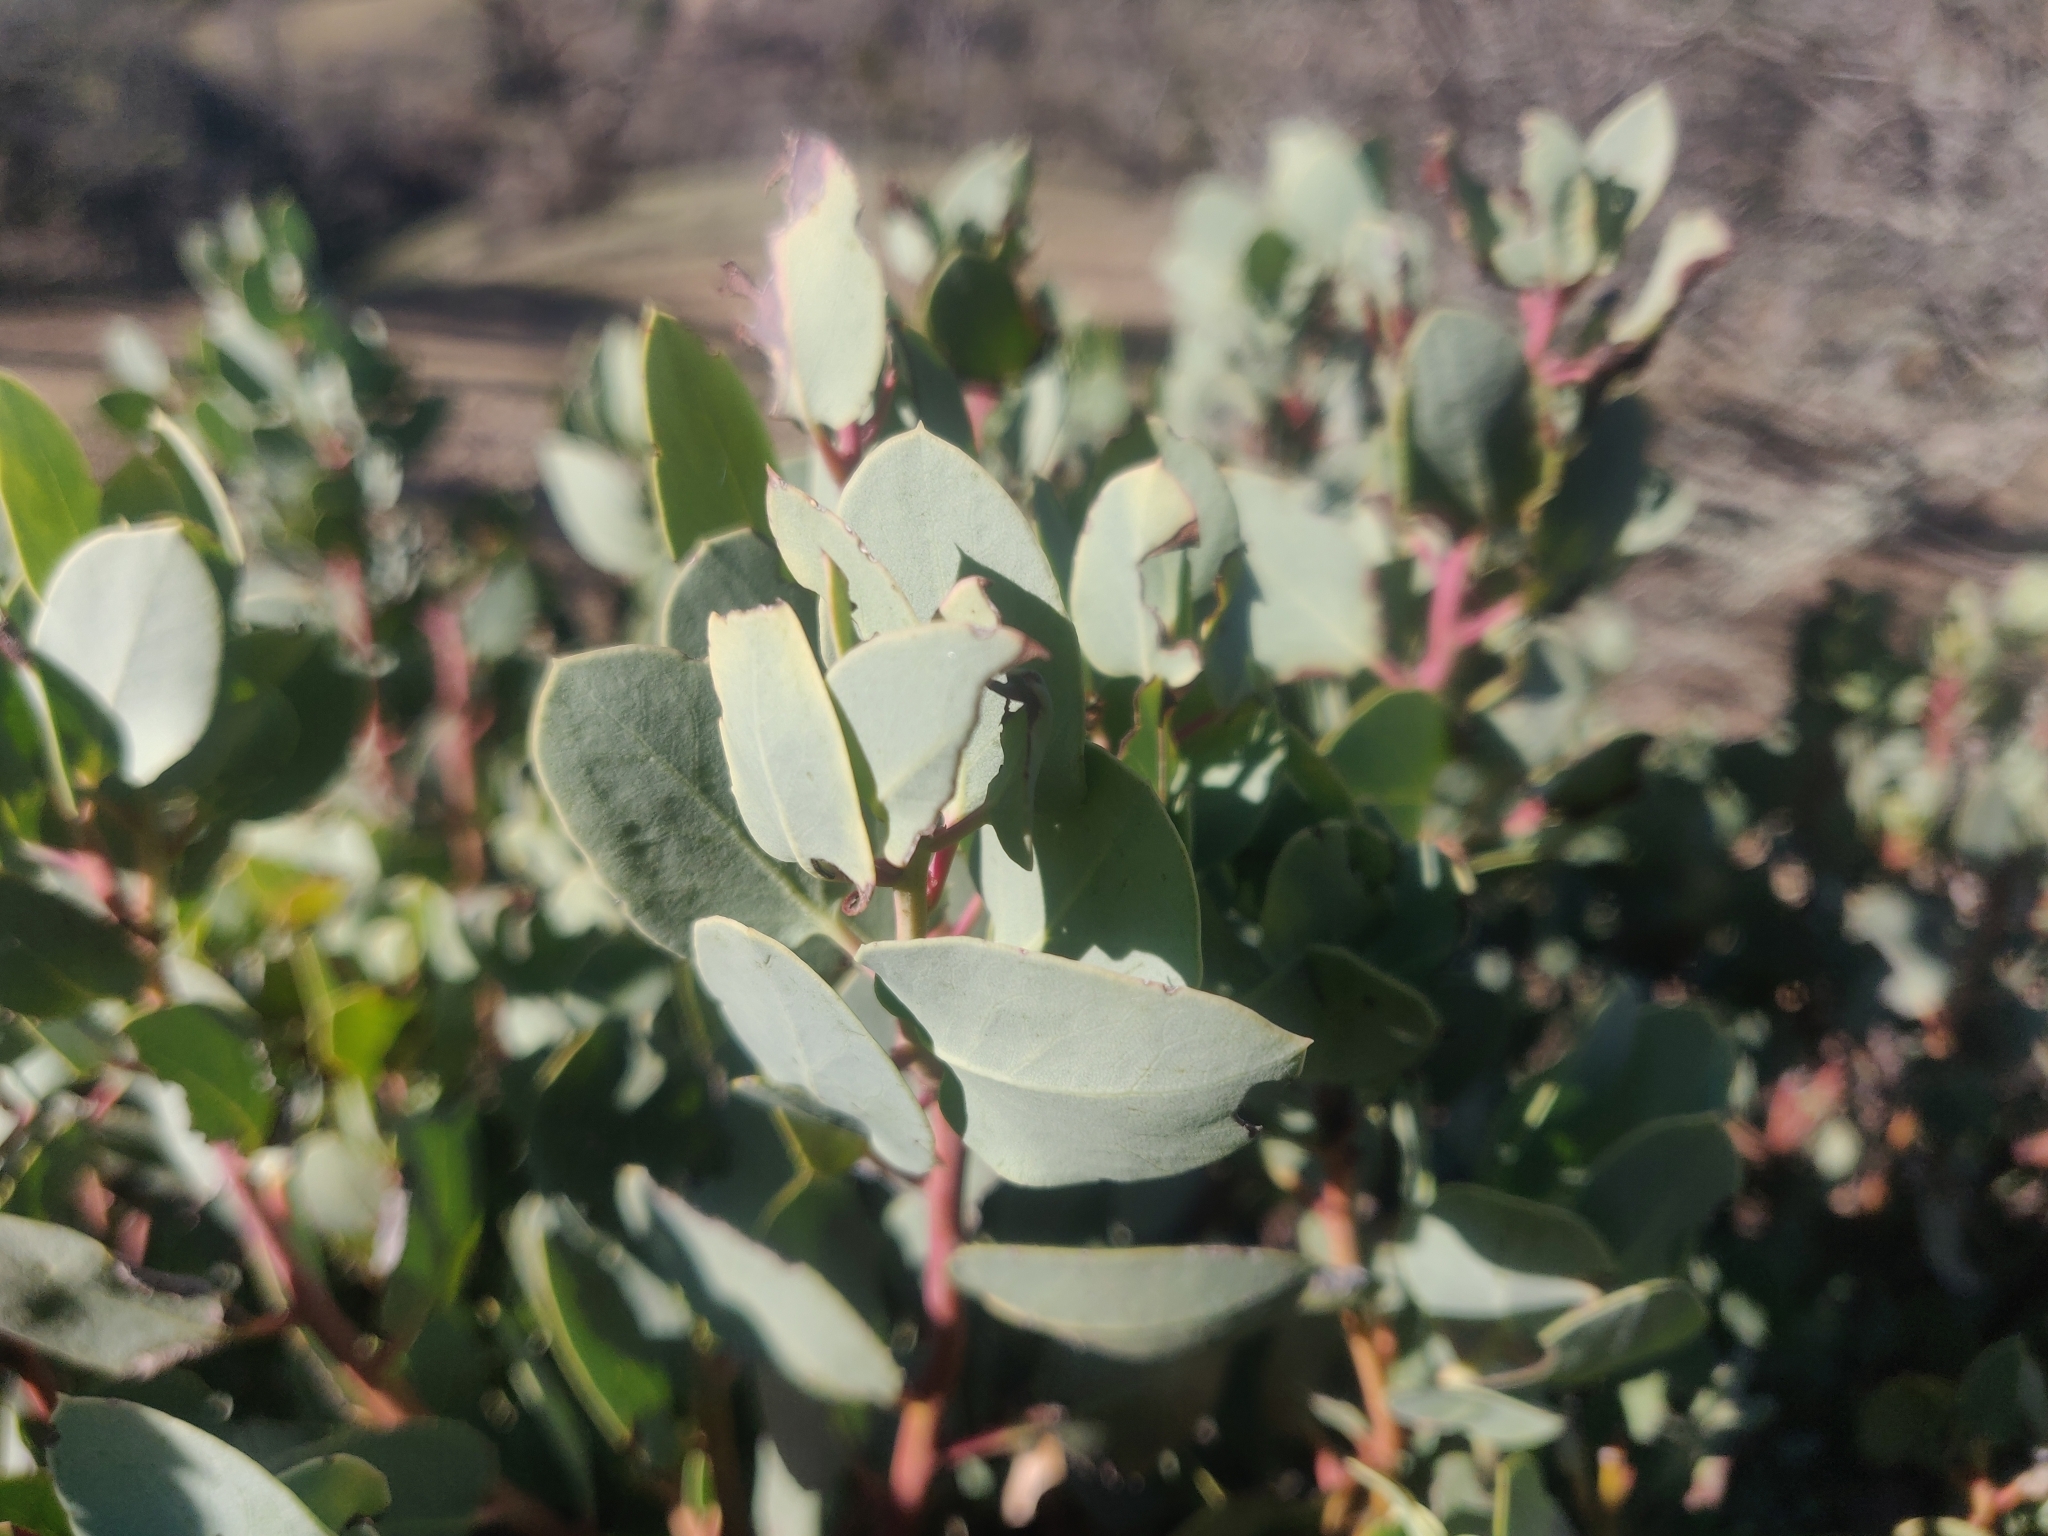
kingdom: Plantae
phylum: Tracheophyta
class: Magnoliopsida
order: Ericales
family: Ericaceae
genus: Arctostaphylos
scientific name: Arctostaphylos glauca
